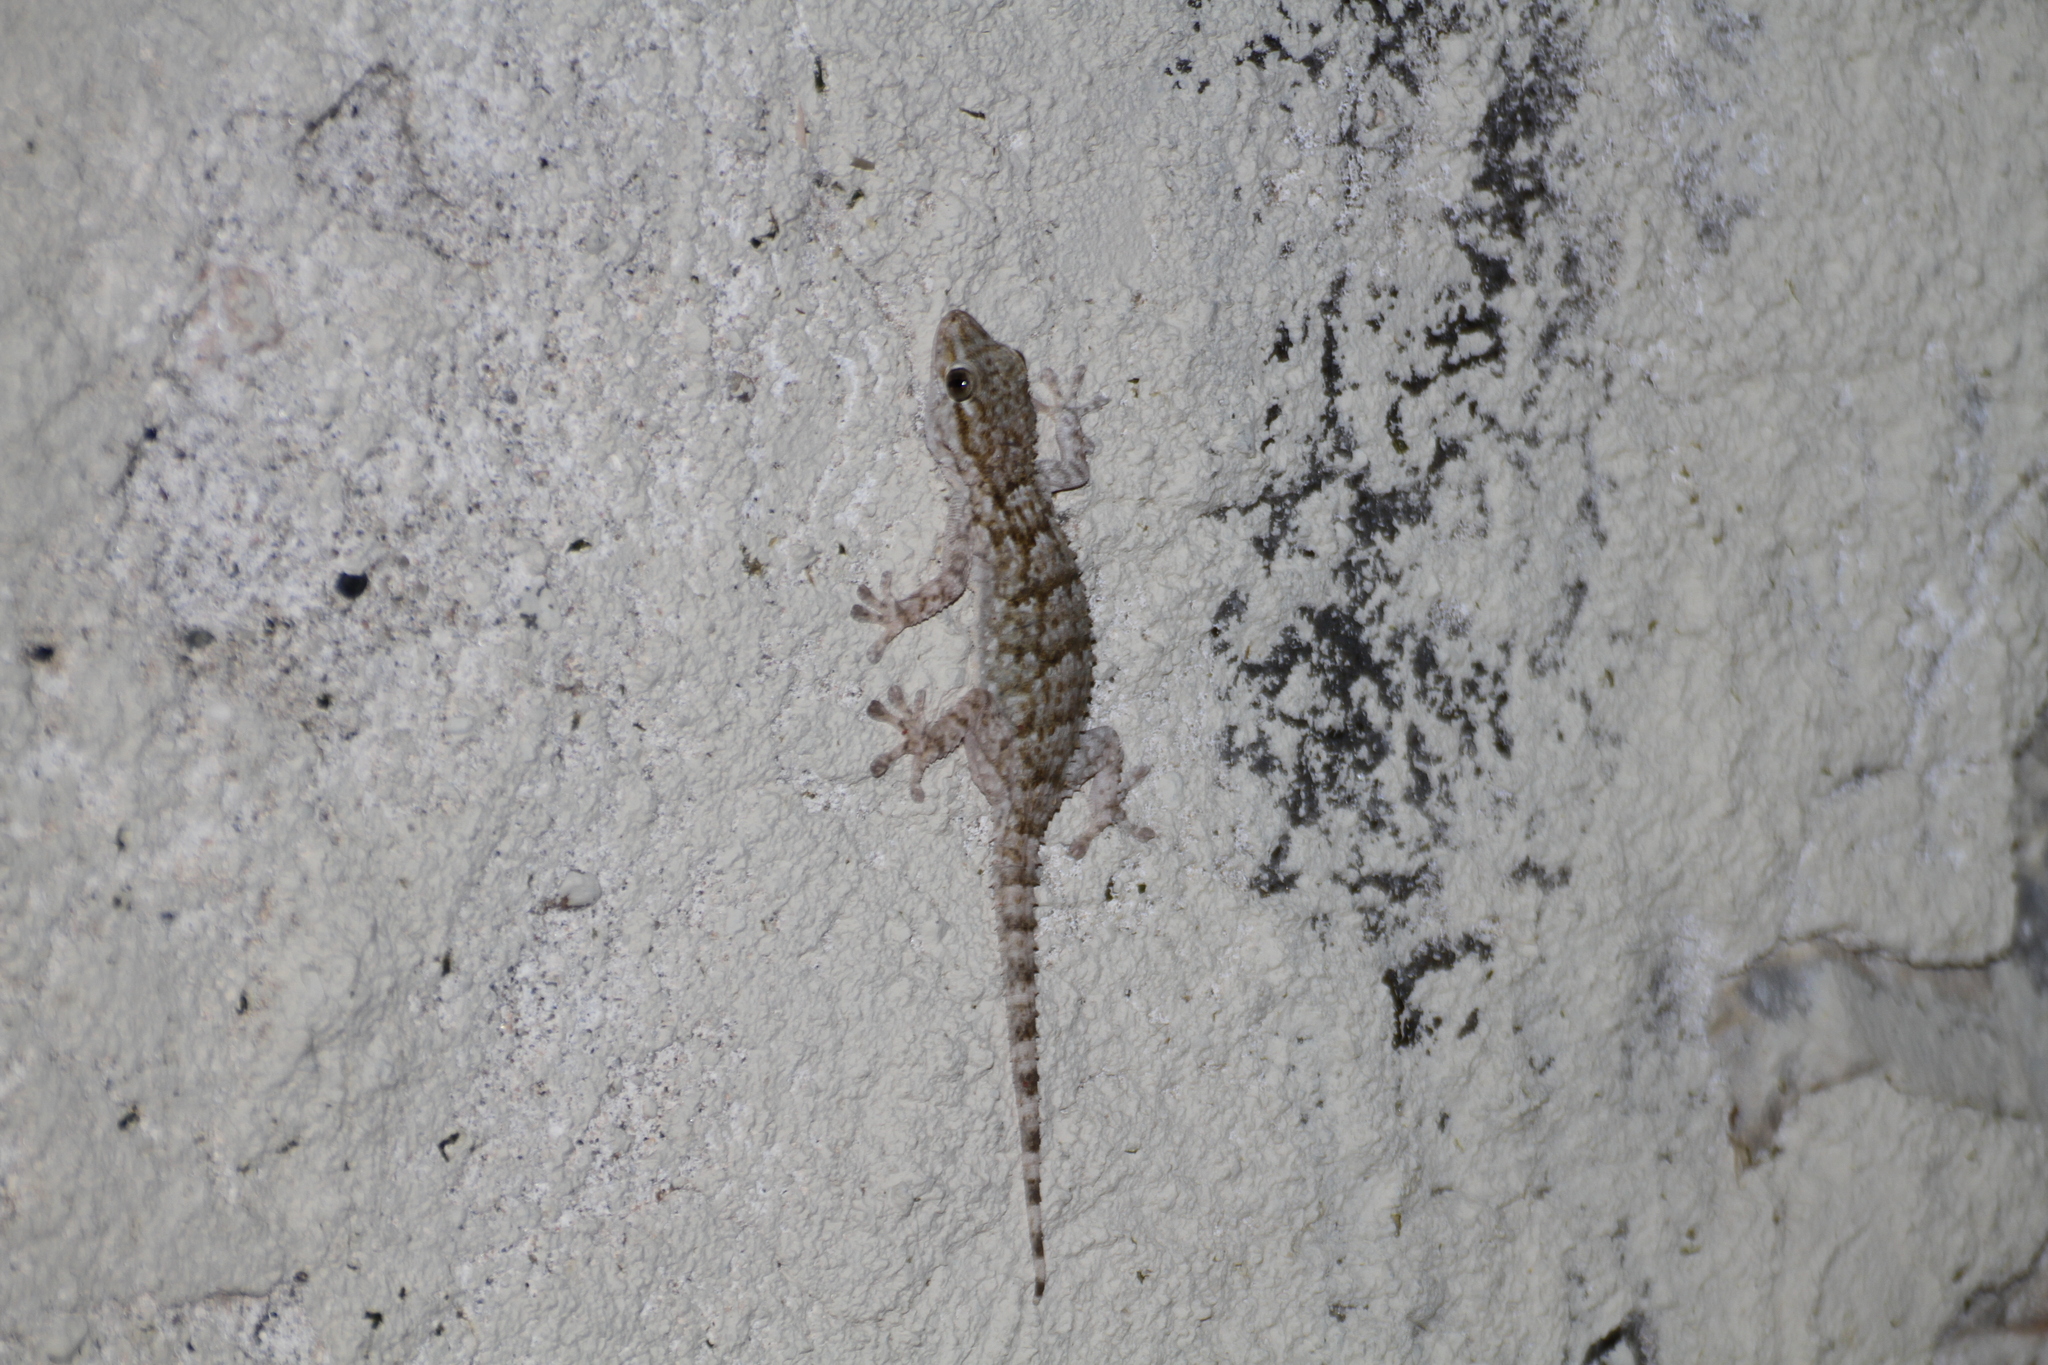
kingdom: Animalia
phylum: Chordata
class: Squamata
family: Phyllodactylidae
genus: Tarentola
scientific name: Tarentola mauritanica
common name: Moorish gecko
